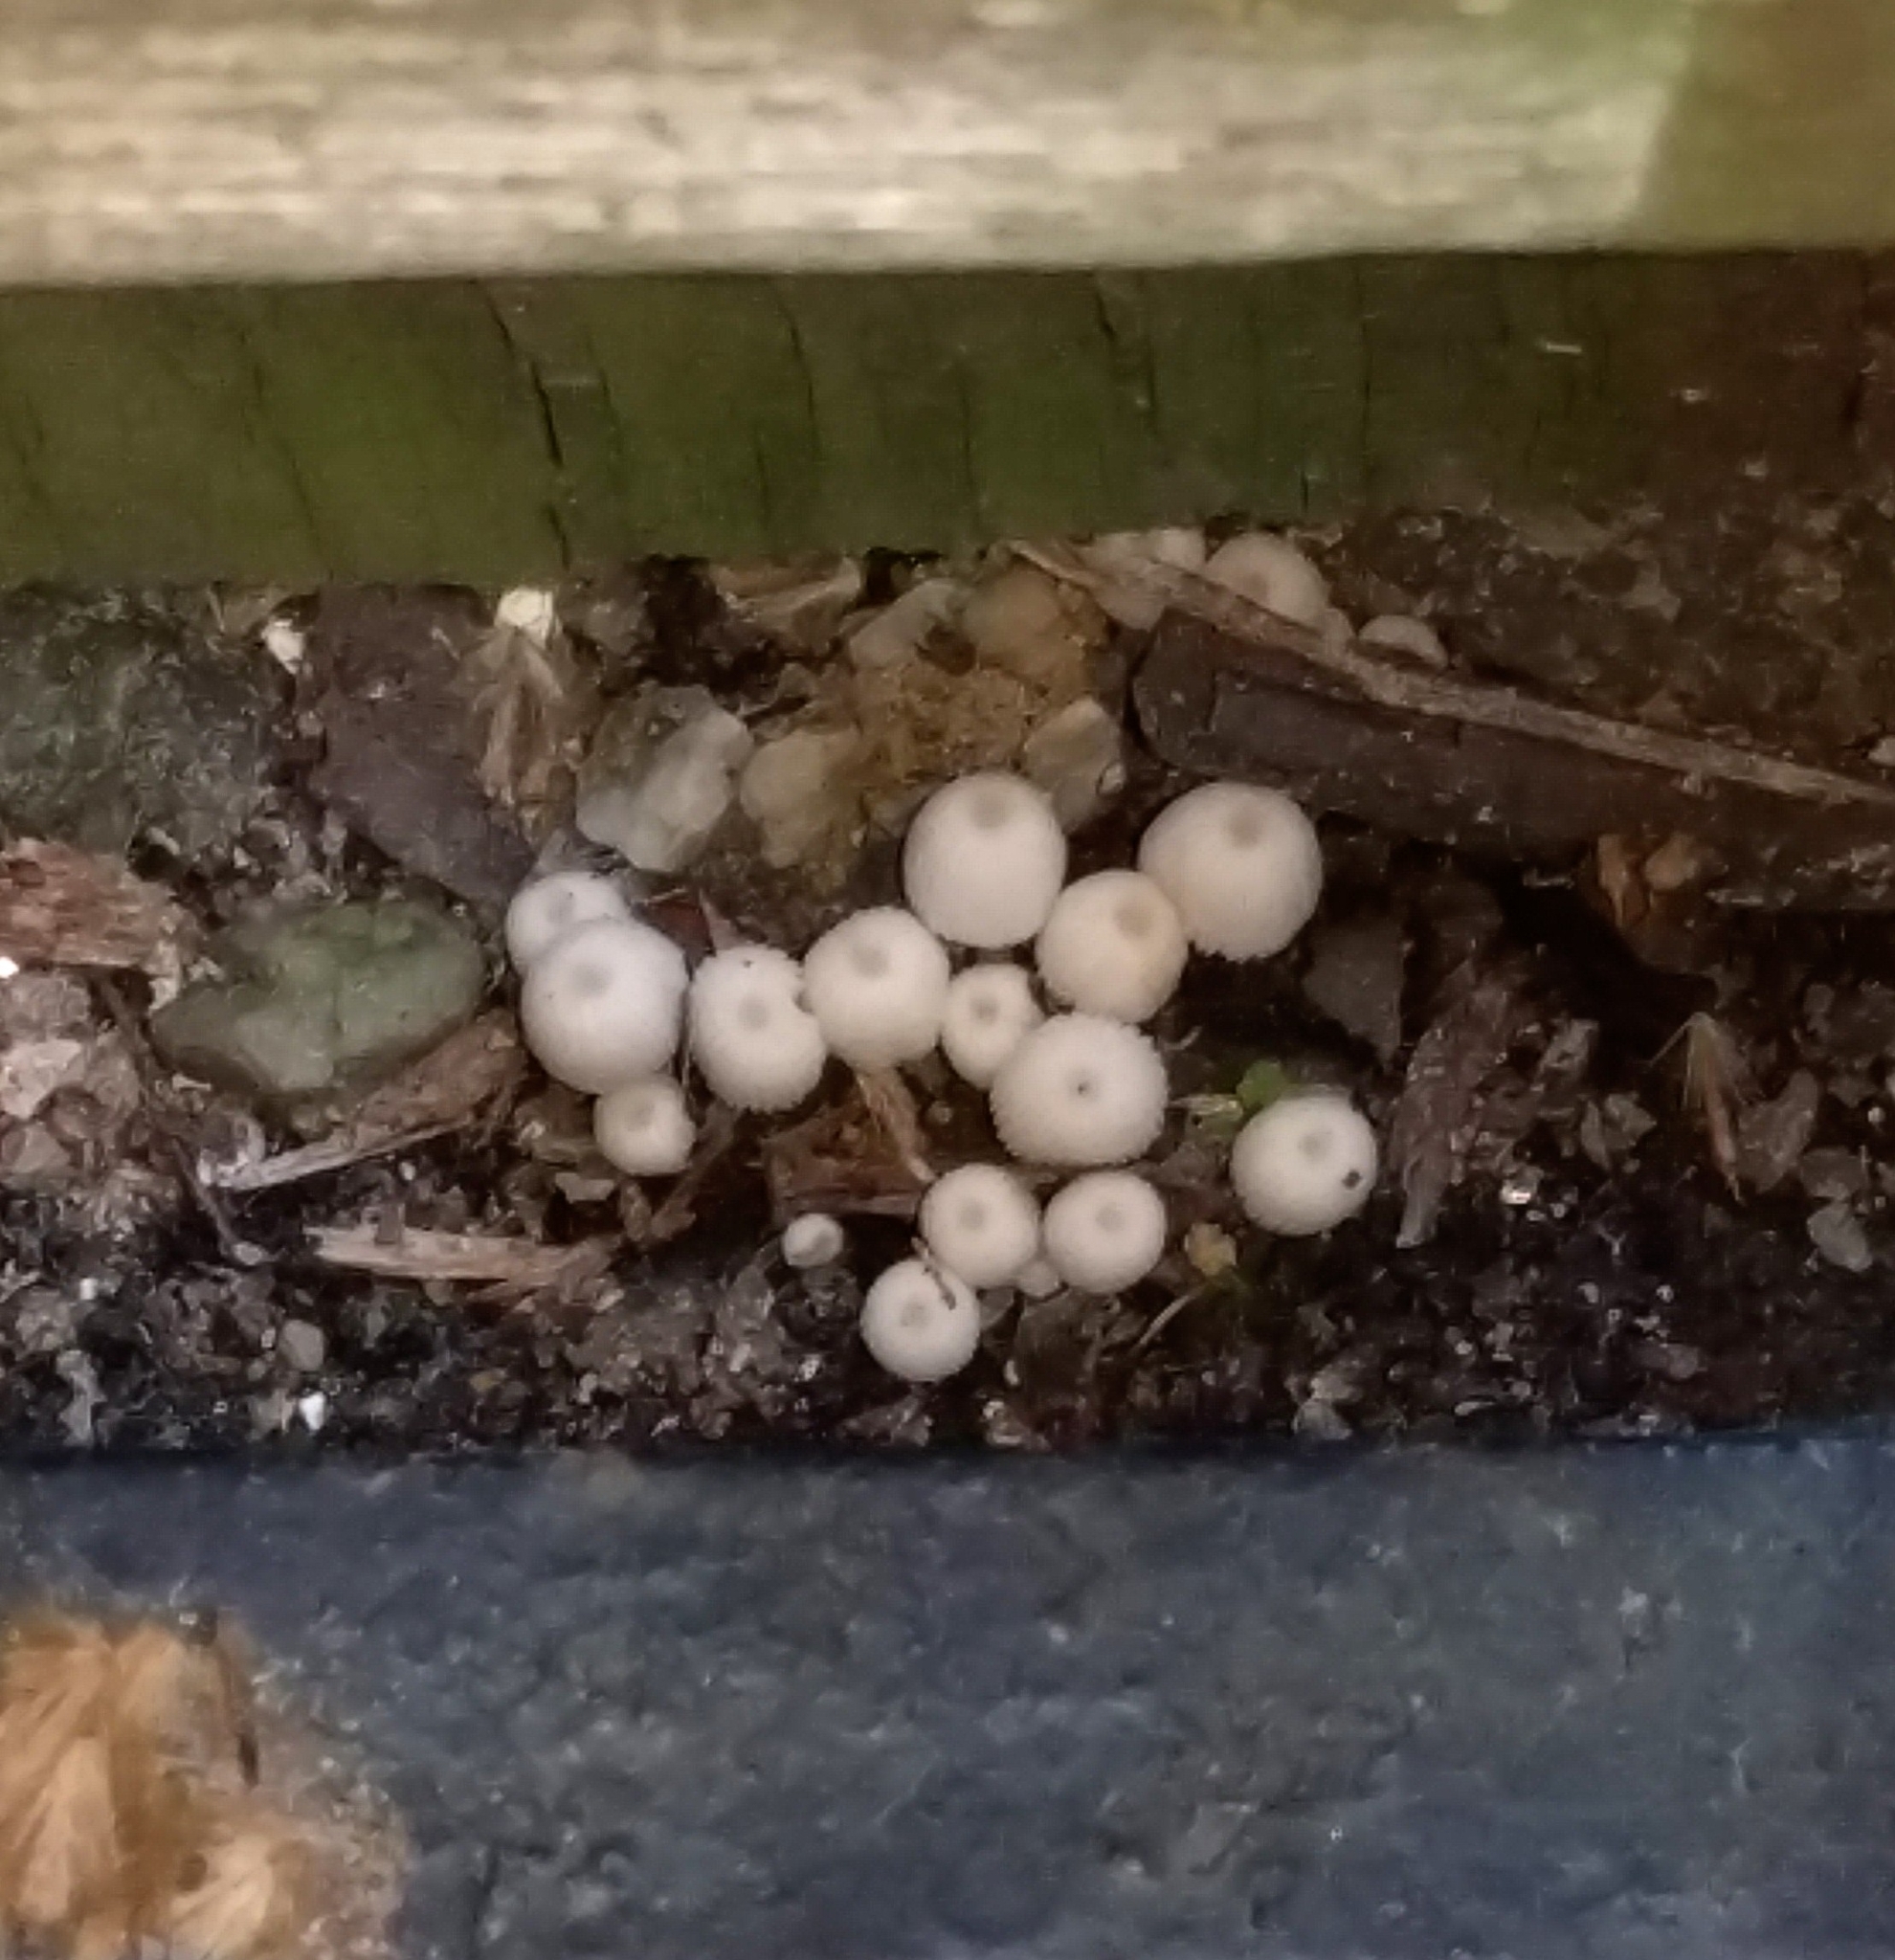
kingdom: Fungi
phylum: Basidiomycota
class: Agaricomycetes
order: Agaricales
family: Psathyrellaceae
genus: Coprinellus
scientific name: Coprinellus disseminatus
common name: Fairies' bonnets
